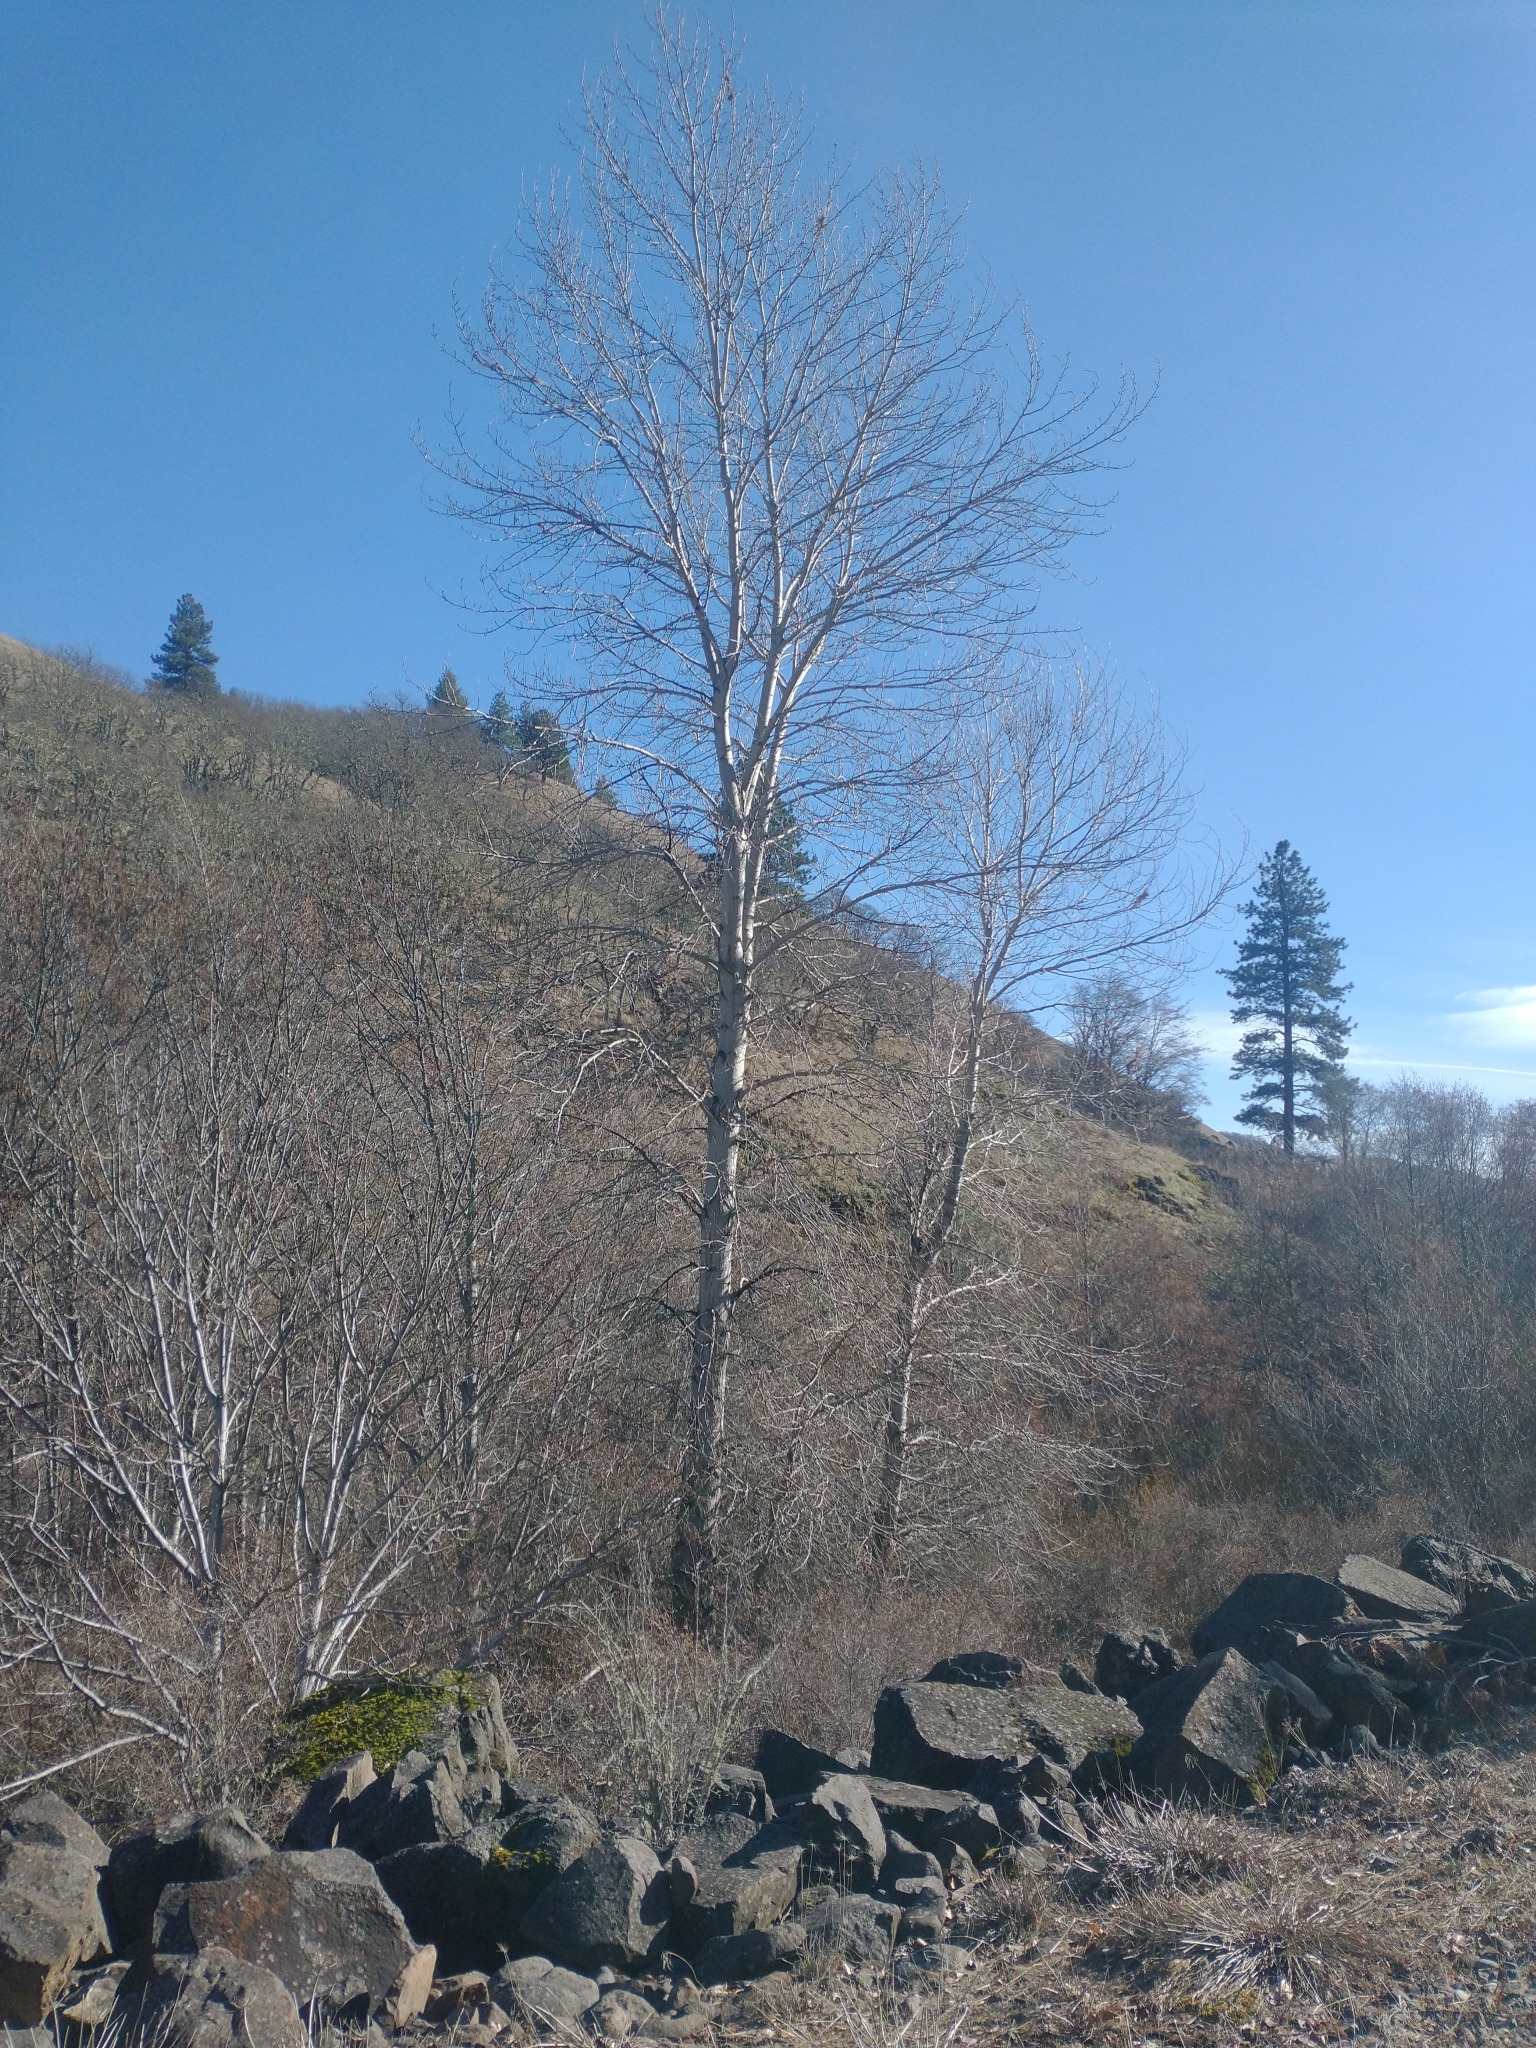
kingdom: Plantae
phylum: Tracheophyta
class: Magnoliopsida
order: Malpighiales
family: Salicaceae
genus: Populus
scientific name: Populus trichocarpa
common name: Black cottonwood
